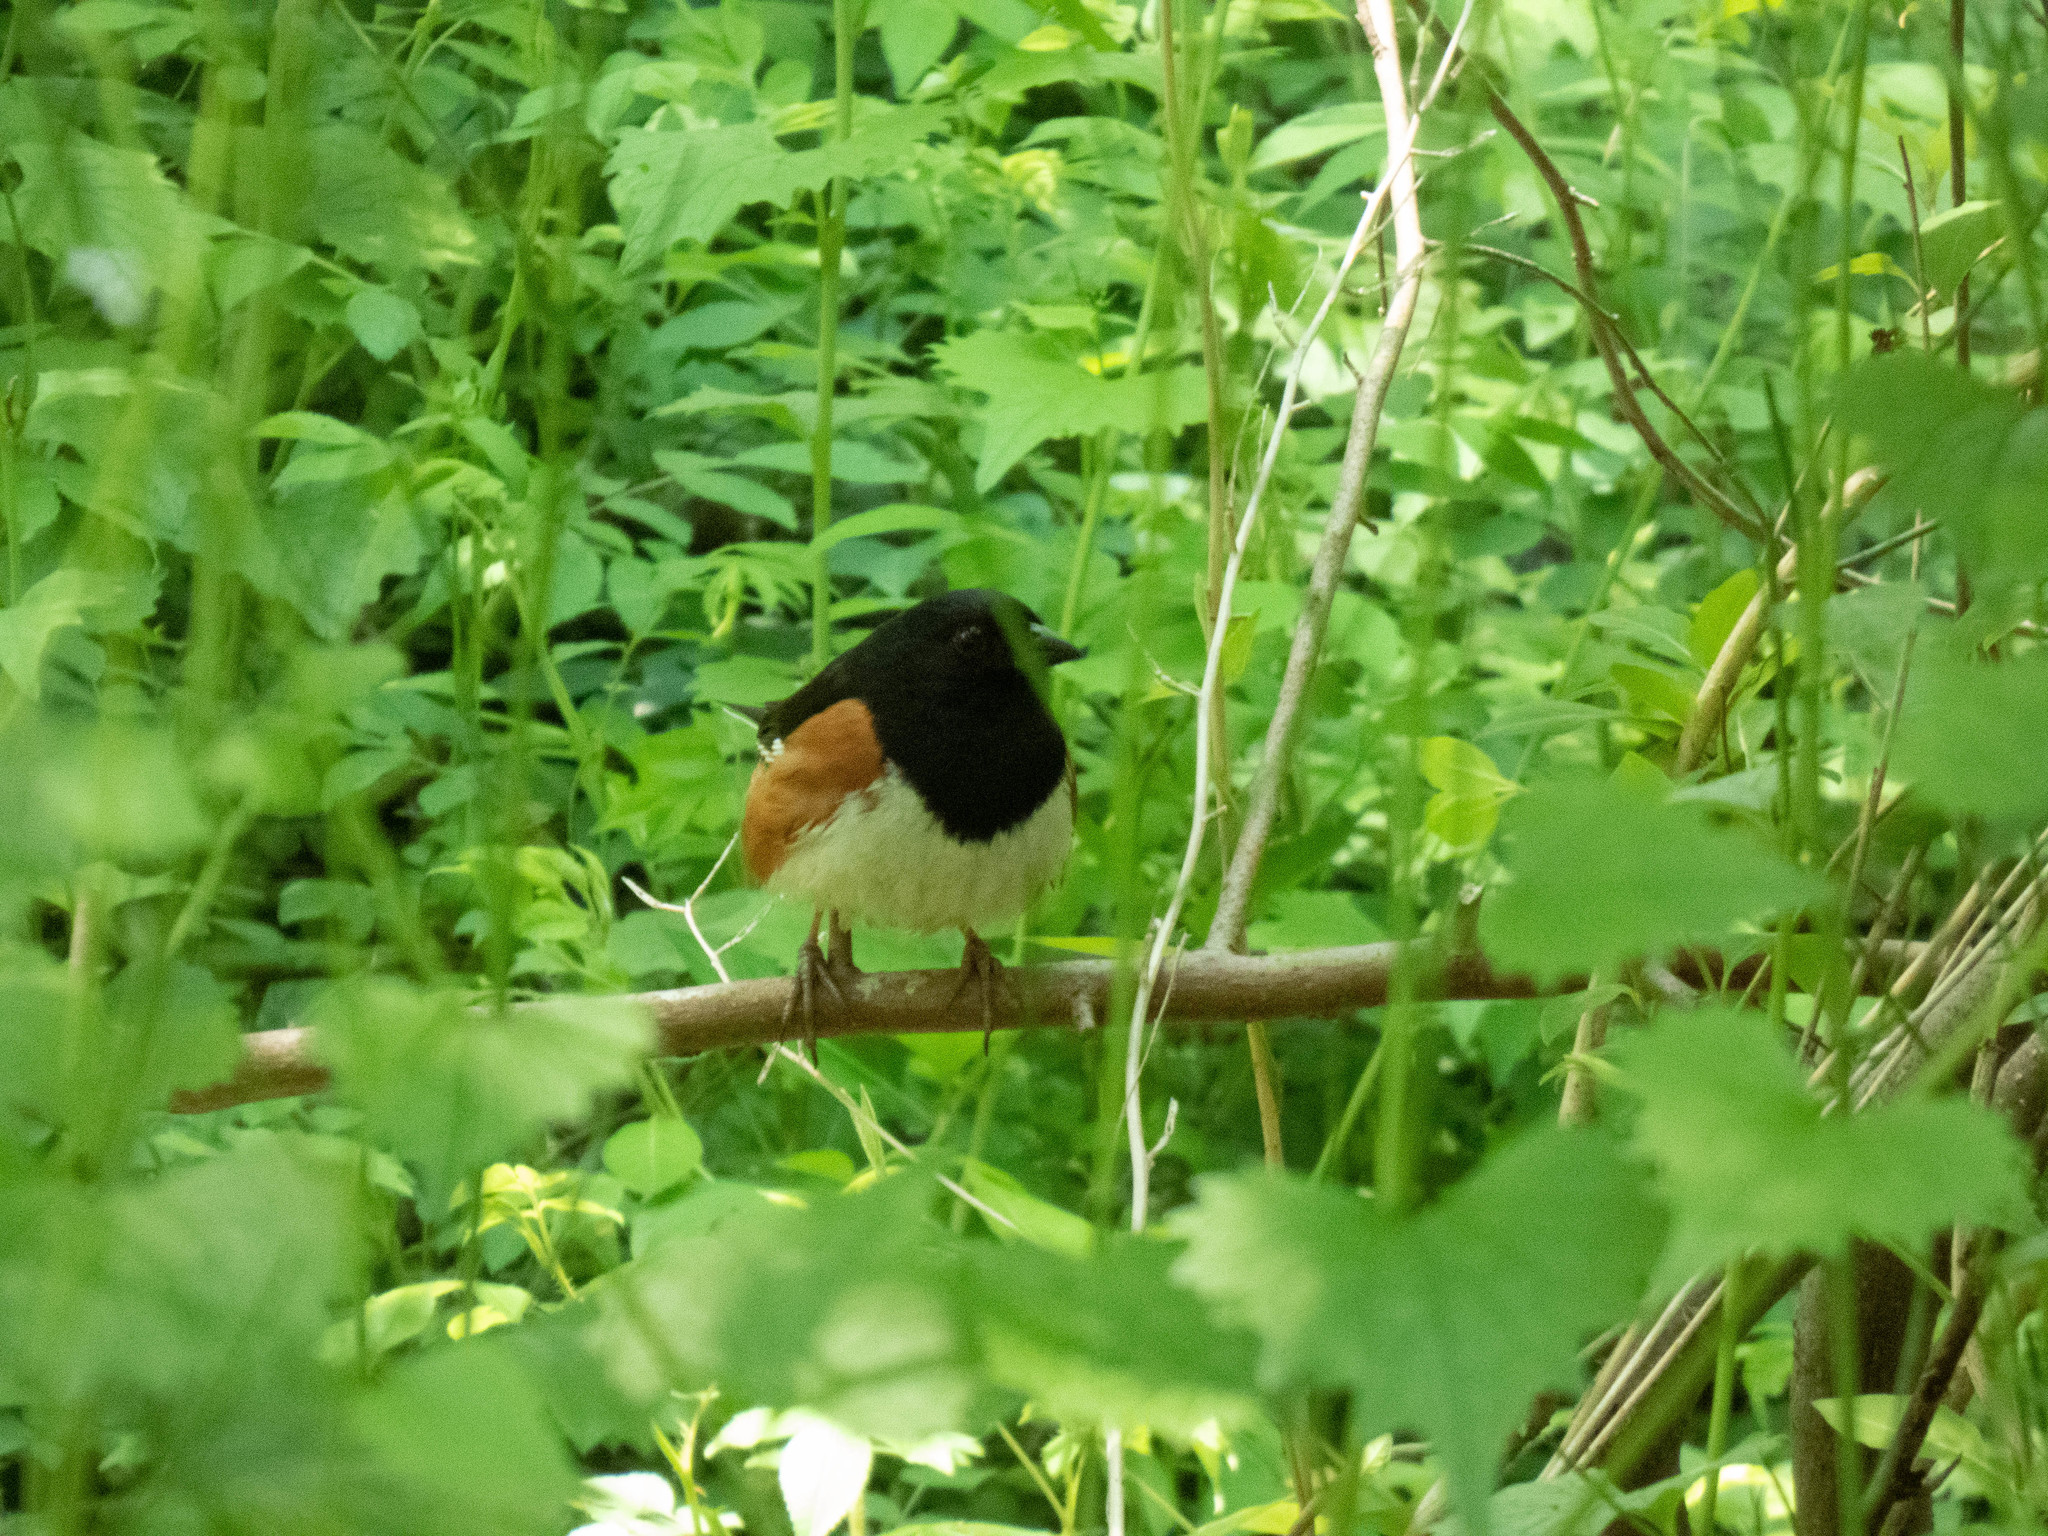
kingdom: Animalia
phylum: Chordata
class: Aves
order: Passeriformes
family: Passerellidae
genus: Pipilo
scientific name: Pipilo erythrophthalmus
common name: Eastern towhee
